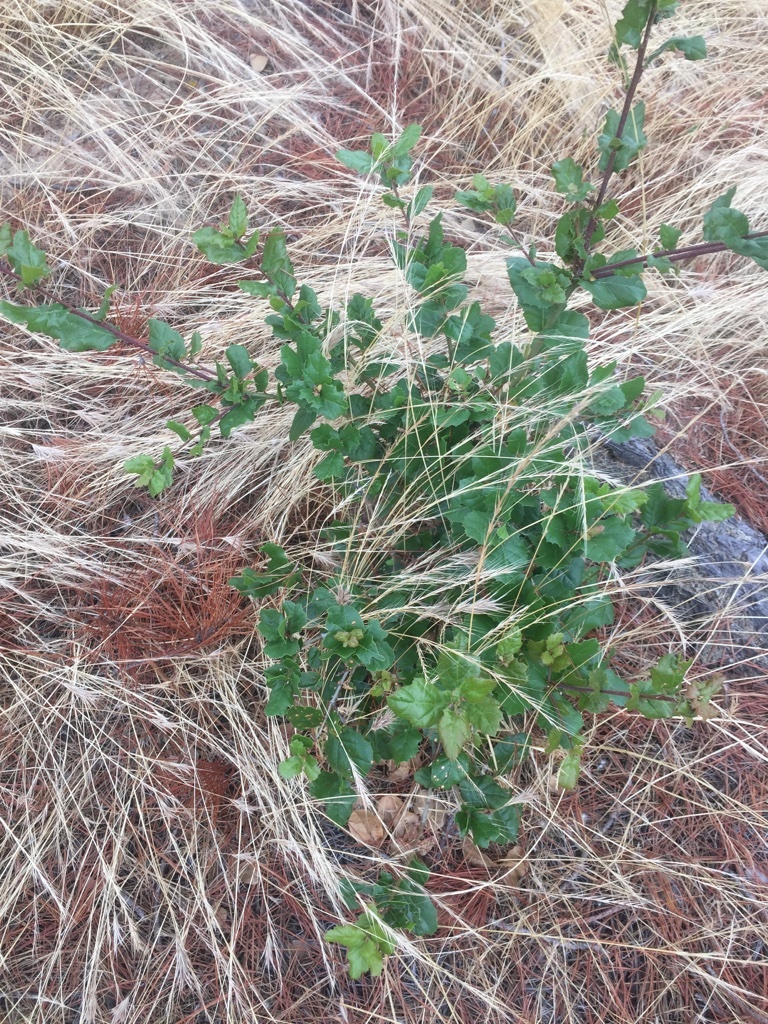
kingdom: Plantae
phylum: Tracheophyta
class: Magnoliopsida
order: Fagales
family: Fagaceae
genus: Quercus
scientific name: Quercus agrifolia
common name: California live oak
